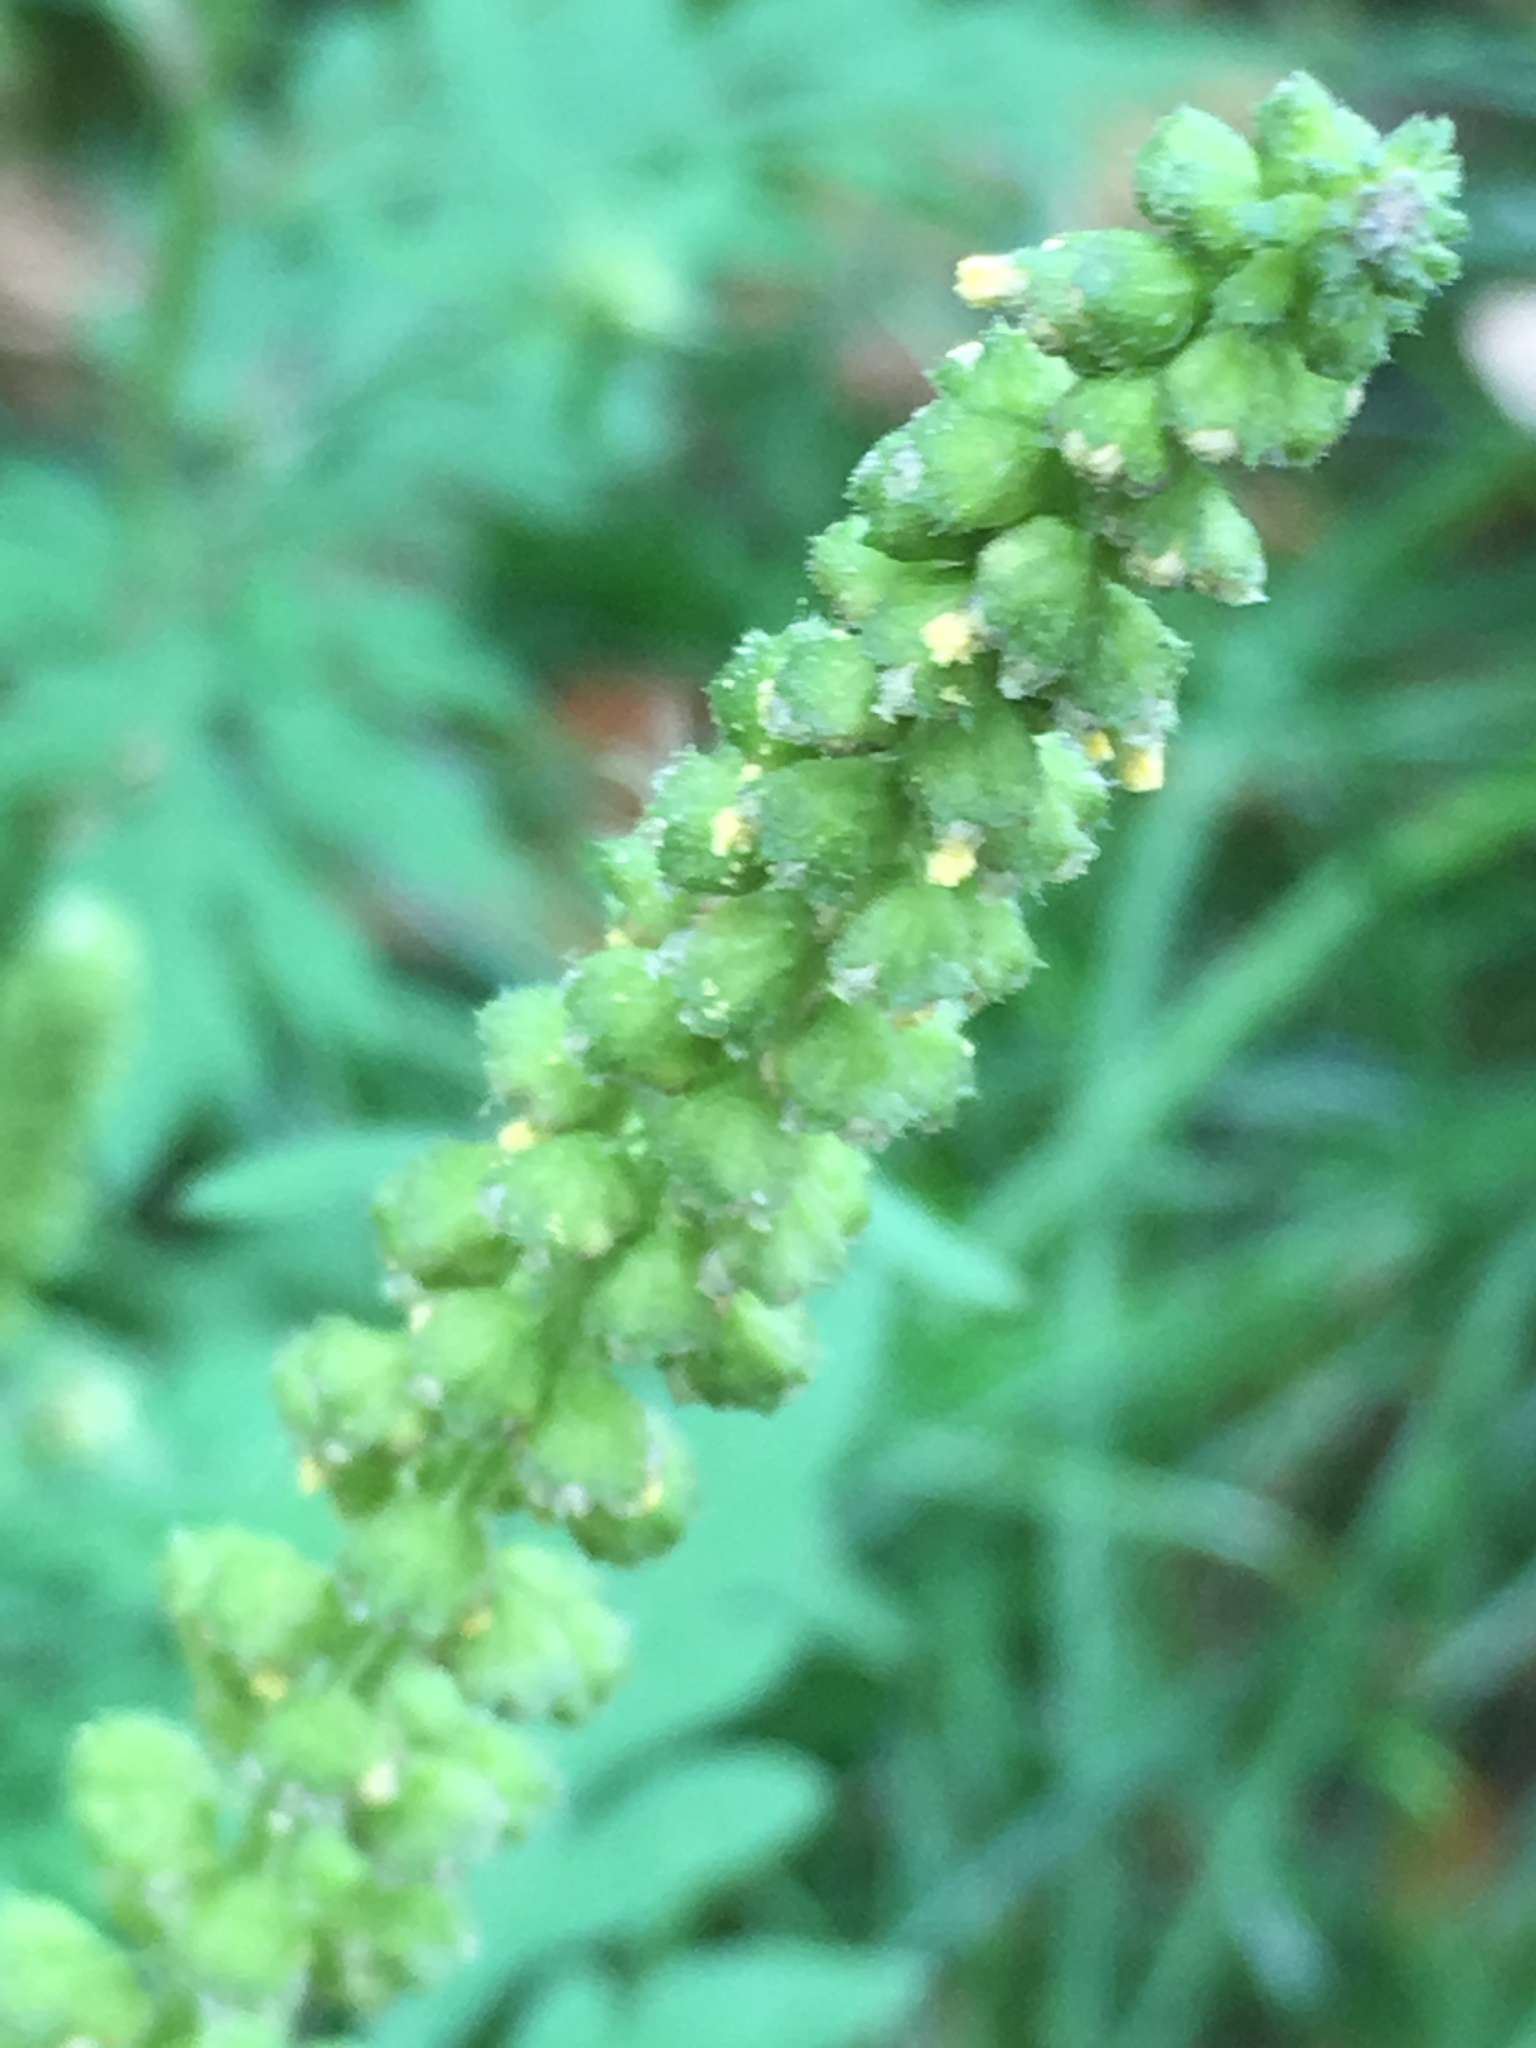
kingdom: Plantae
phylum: Tracheophyta
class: Magnoliopsida
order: Asterales
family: Asteraceae
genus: Ambrosia
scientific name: Ambrosia artemisiifolia
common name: Annual ragweed
